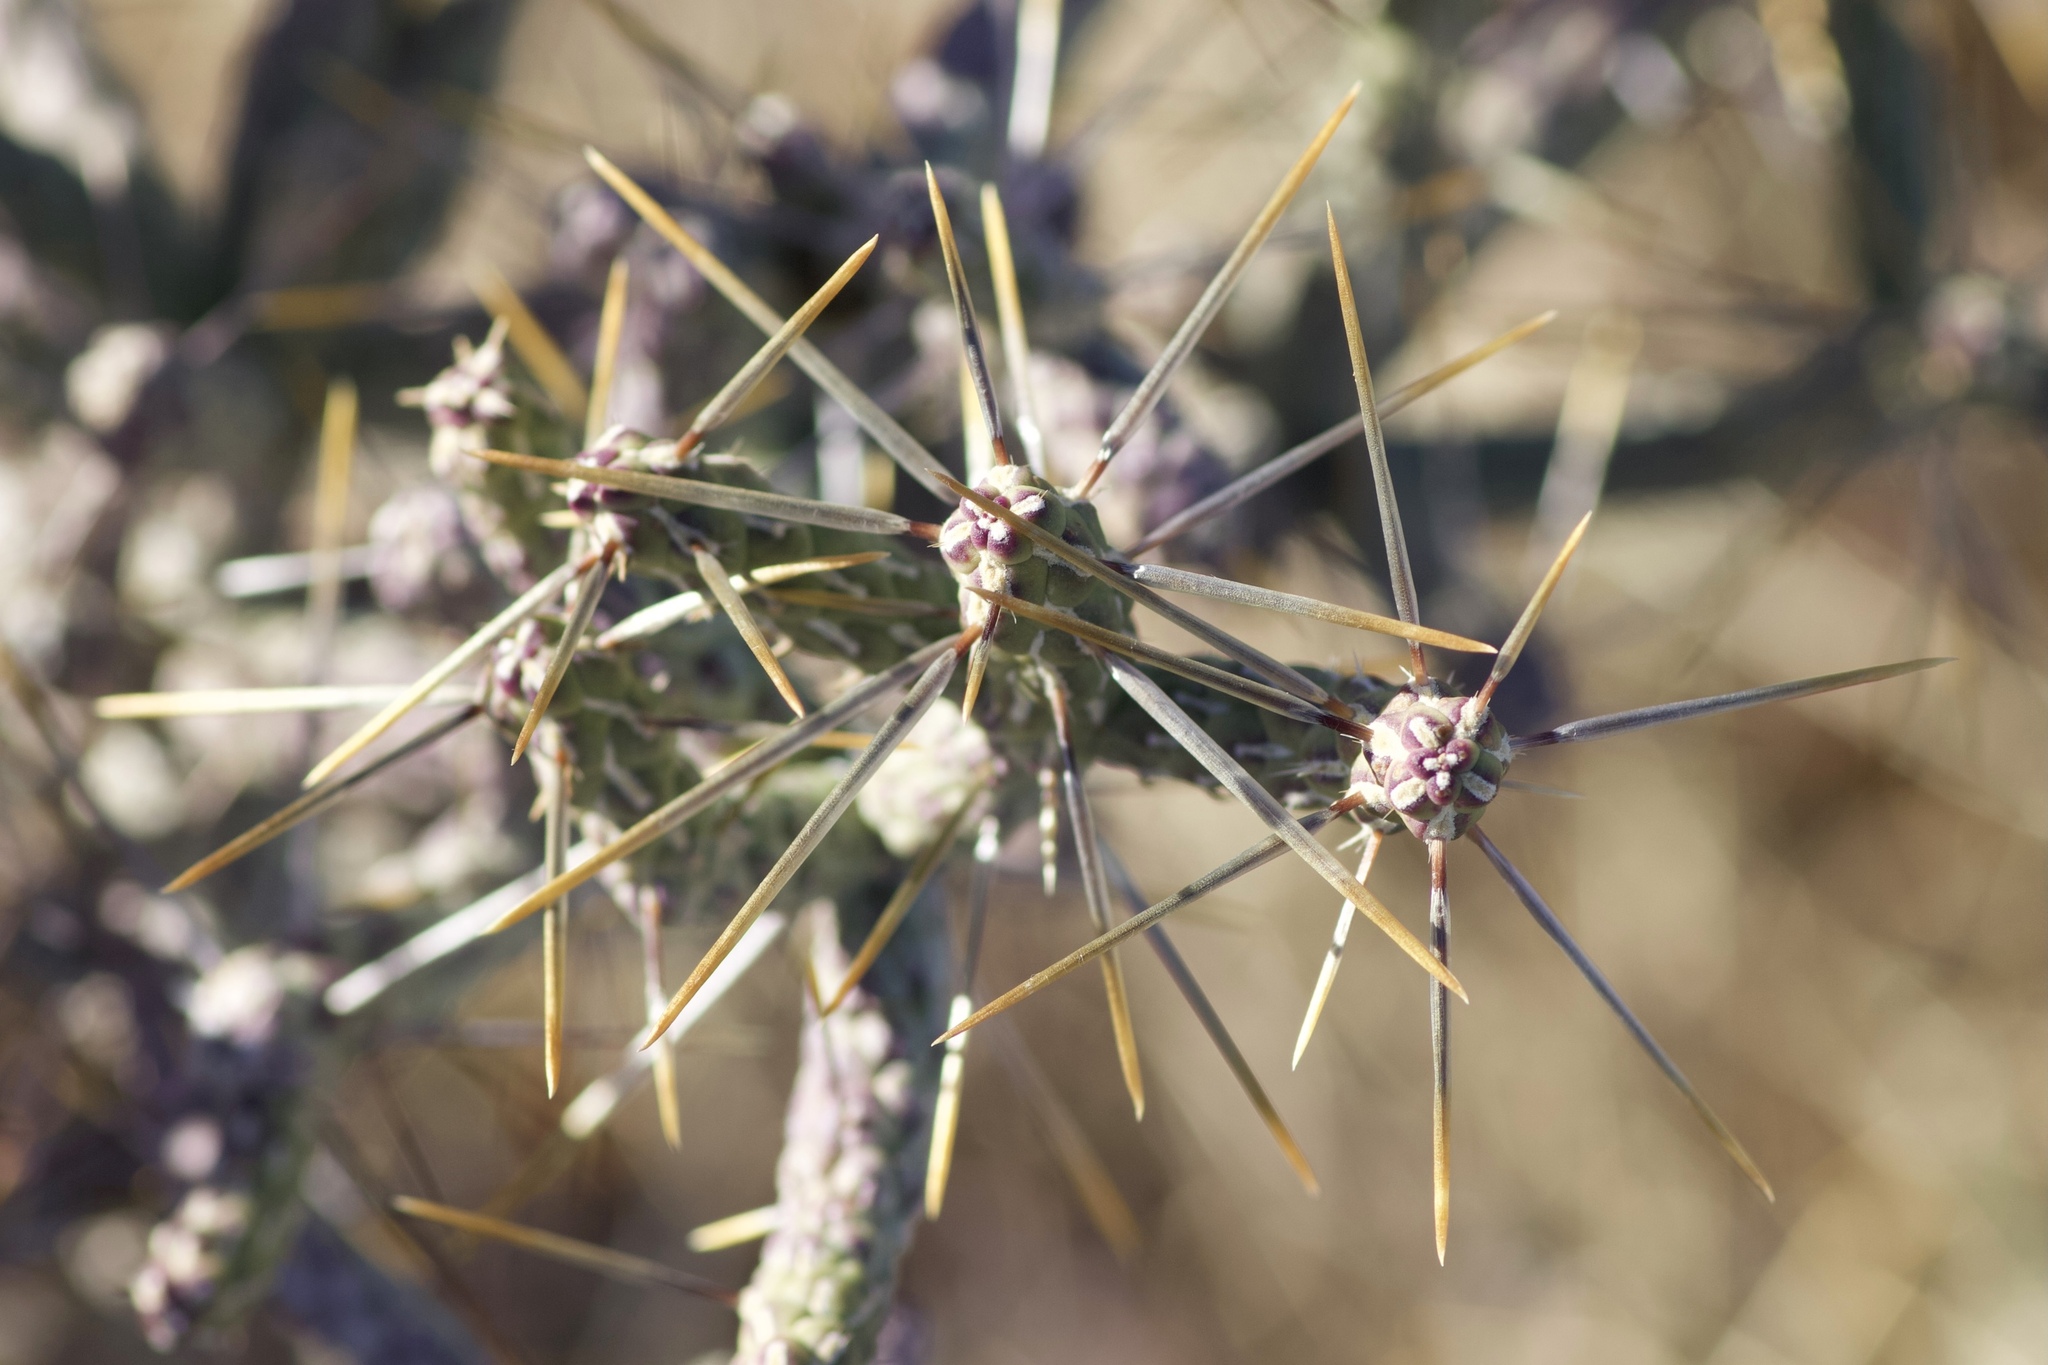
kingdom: Plantae
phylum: Tracheophyta
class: Magnoliopsida
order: Caryophyllales
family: Cactaceae
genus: Cylindropuntia
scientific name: Cylindropuntia ramosissima
